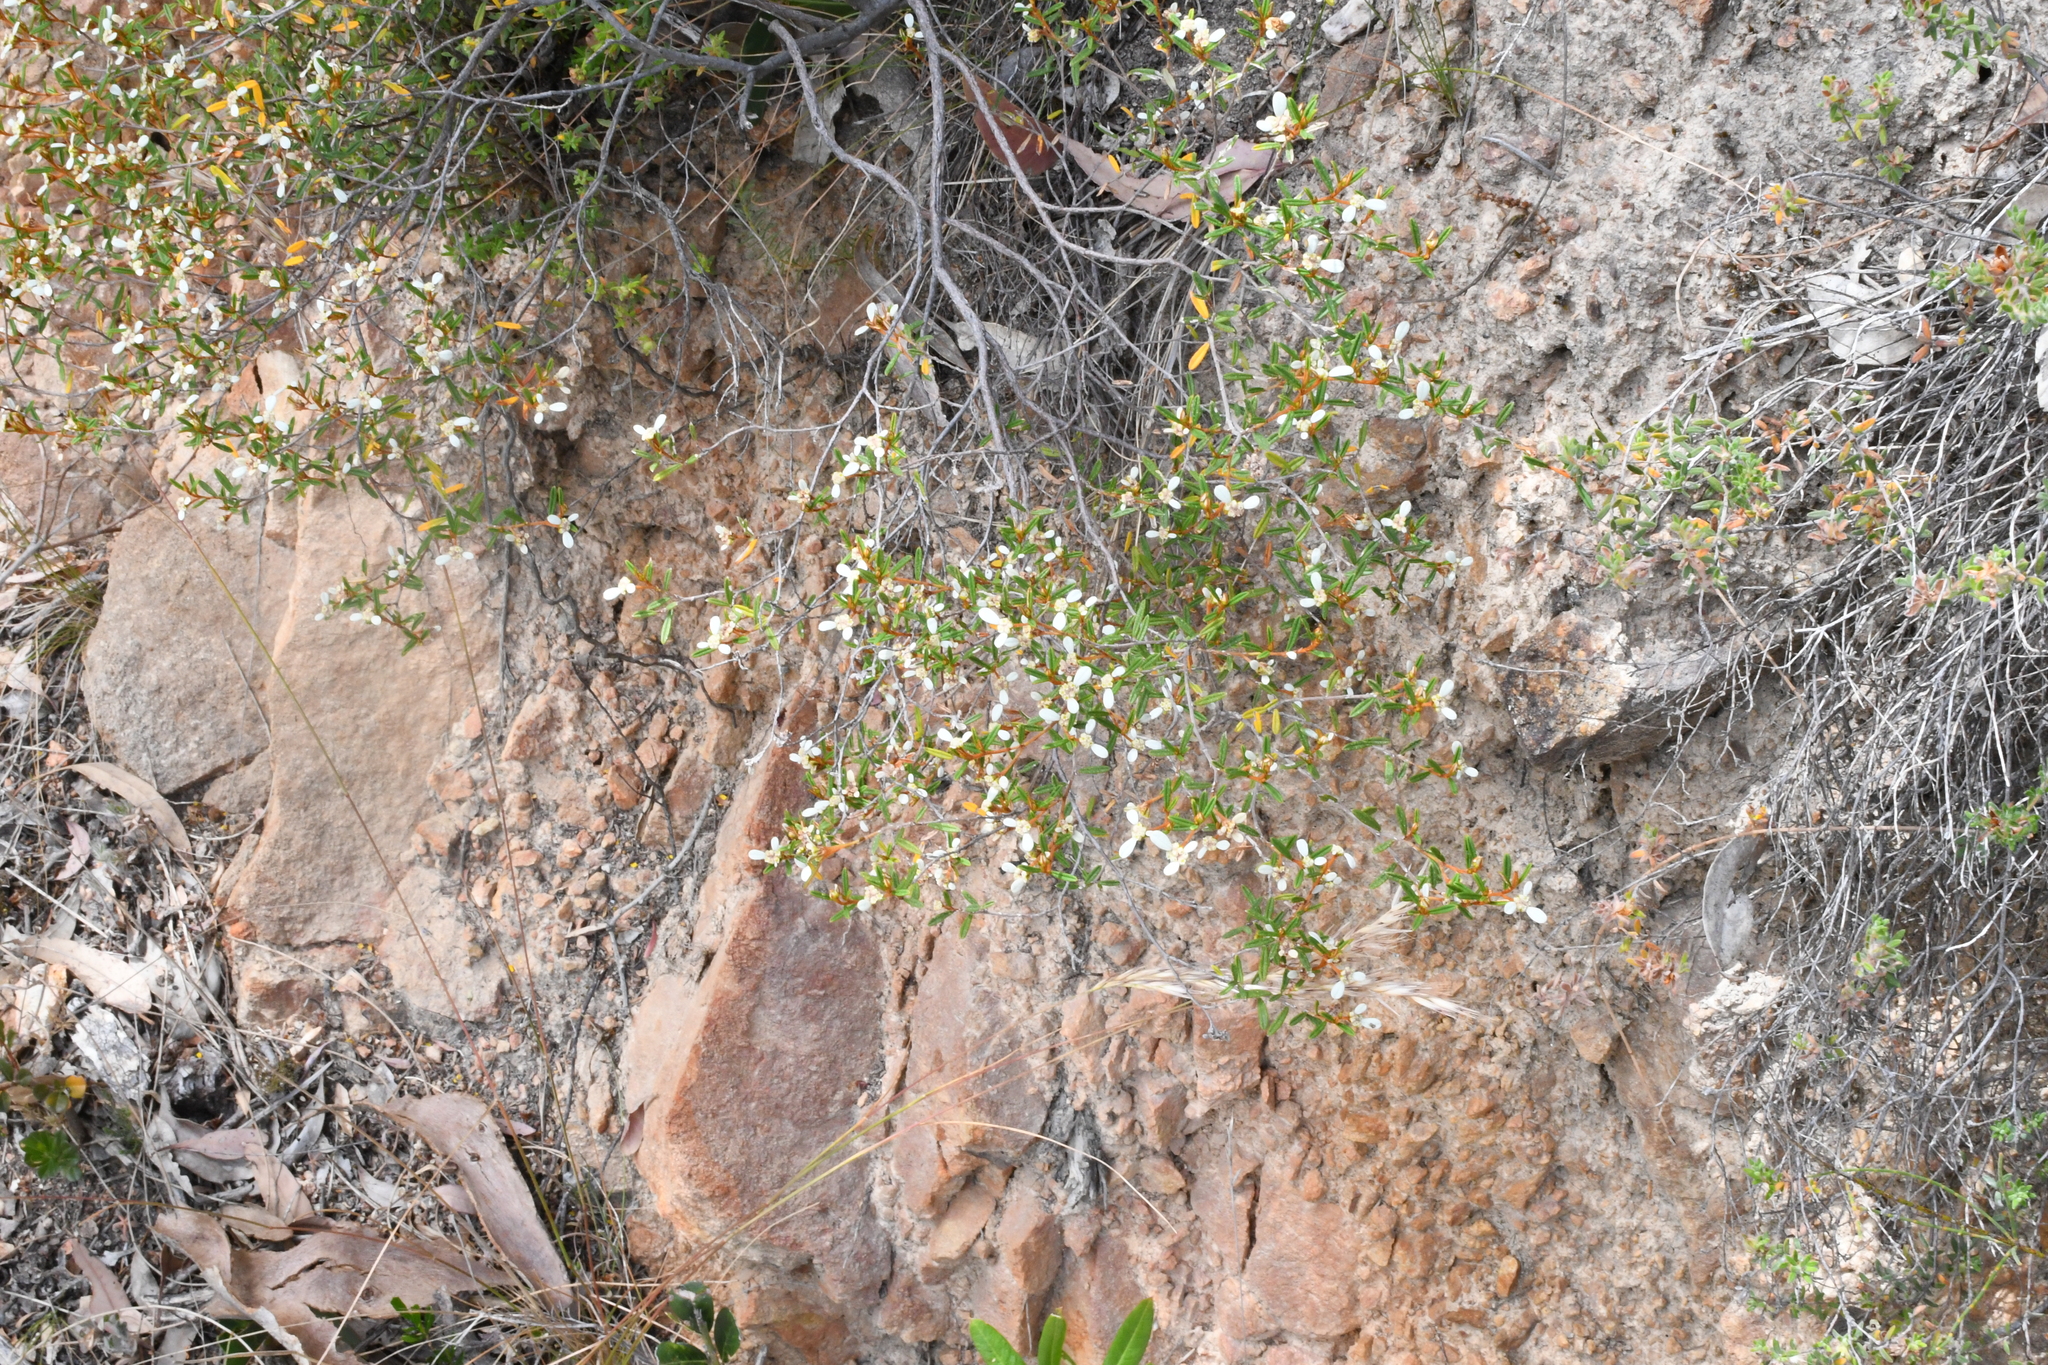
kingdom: Plantae
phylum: Tracheophyta
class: Magnoliopsida
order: Rosales
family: Rhamnaceae
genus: Spyridium
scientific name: Spyridium vexilliferum
